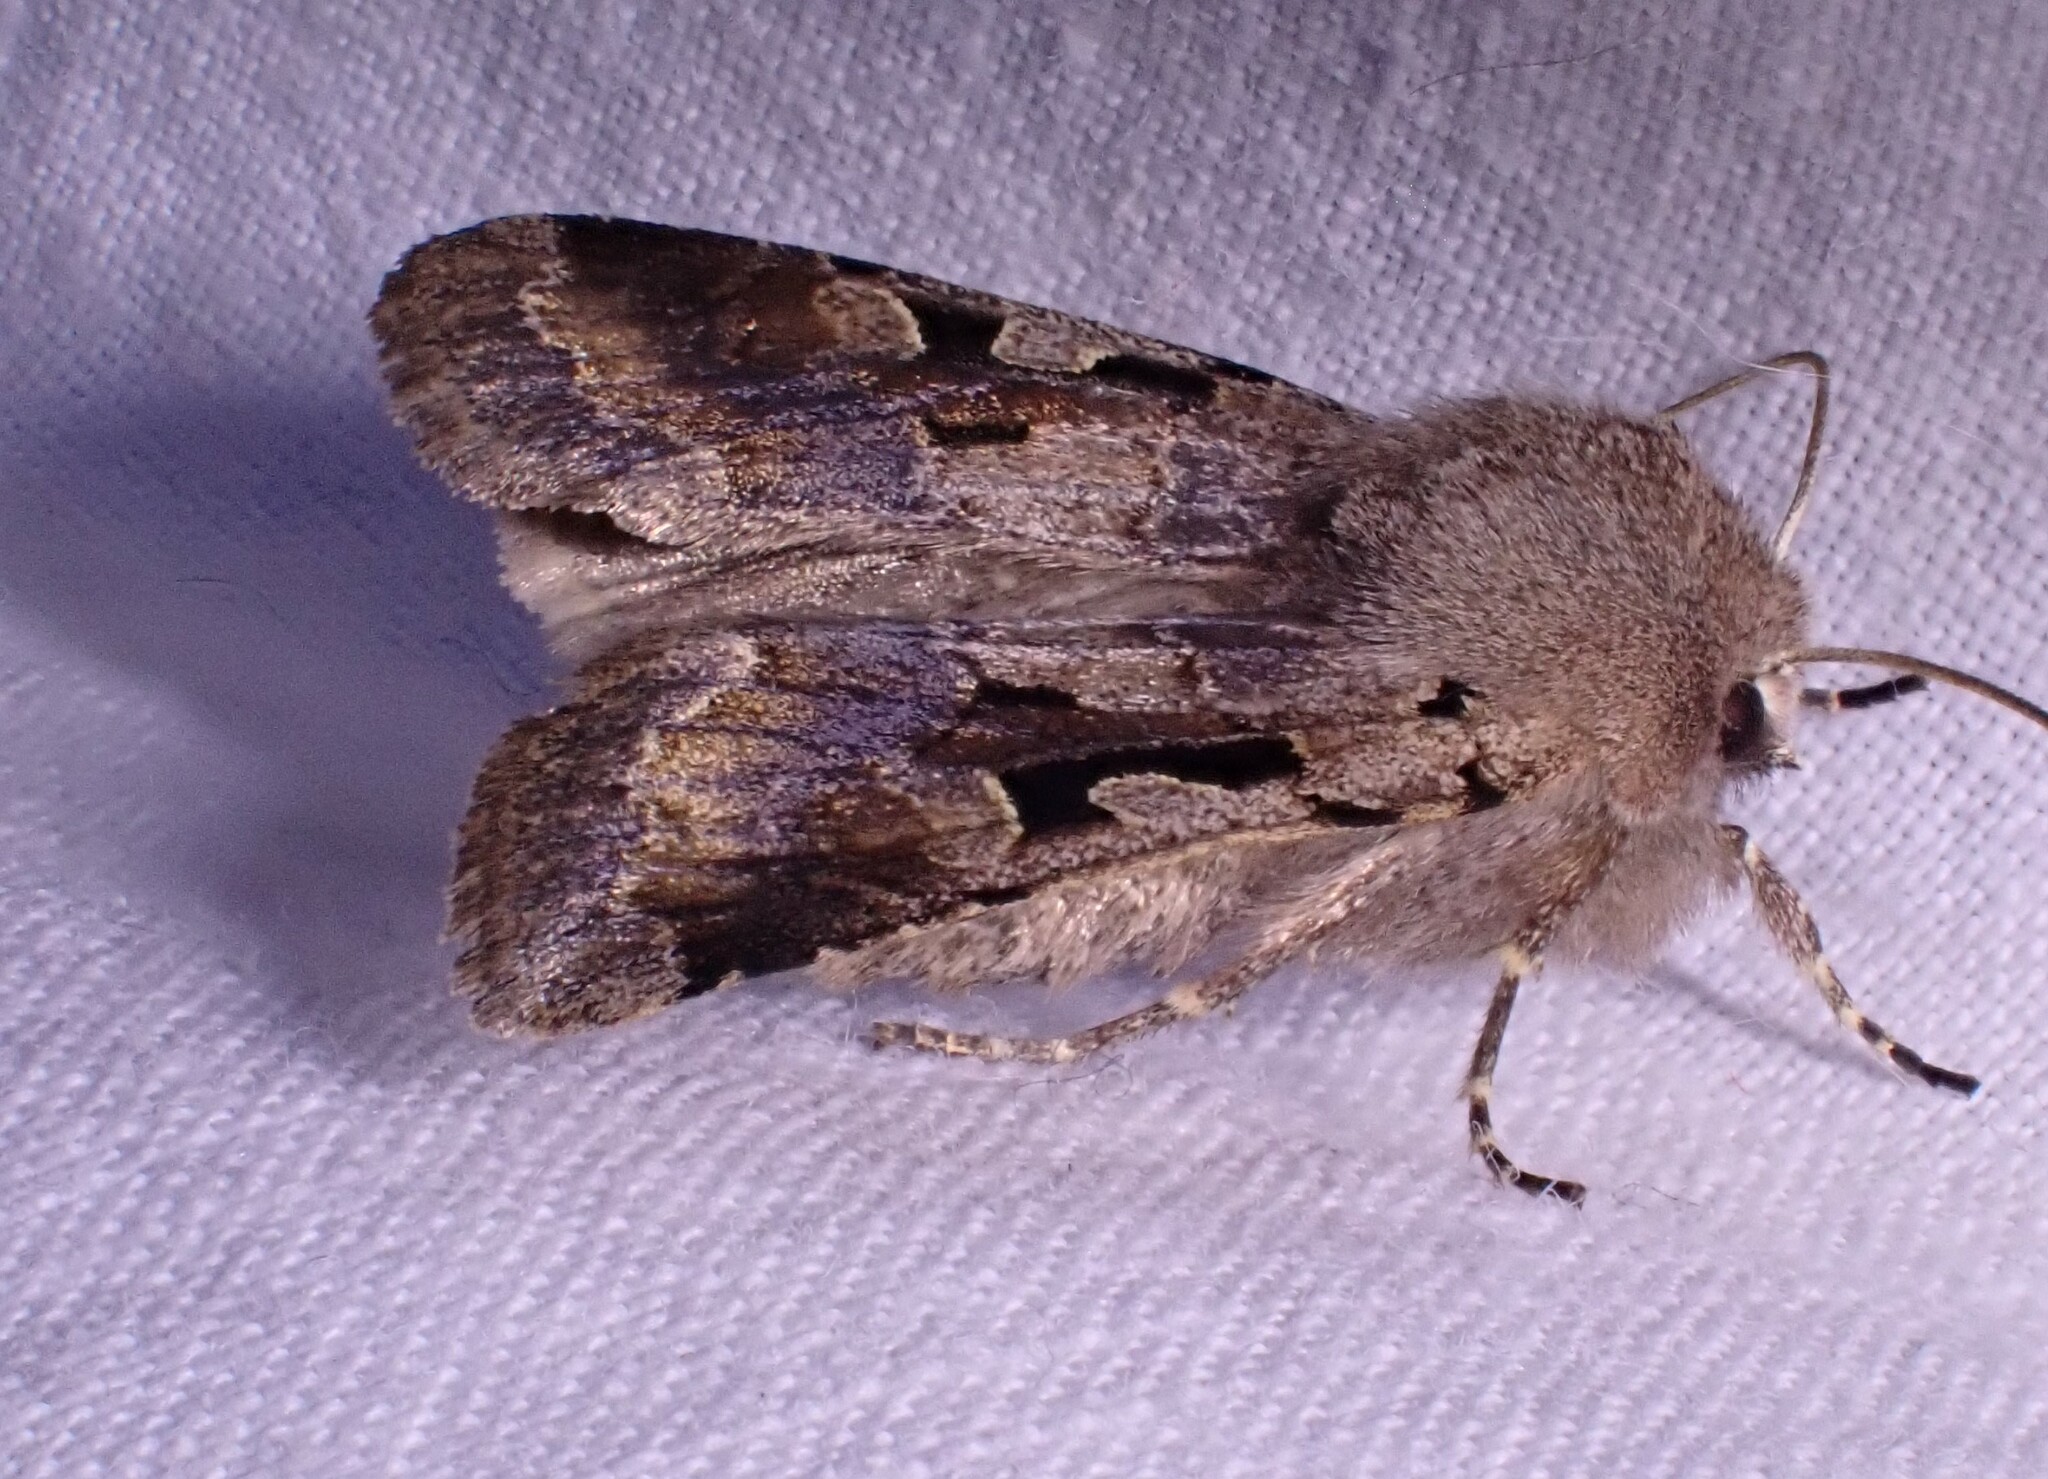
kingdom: Animalia
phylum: Arthropoda
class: Insecta
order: Lepidoptera
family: Noctuidae
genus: Orthosia
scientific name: Orthosia gothica
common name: Hebrew character
